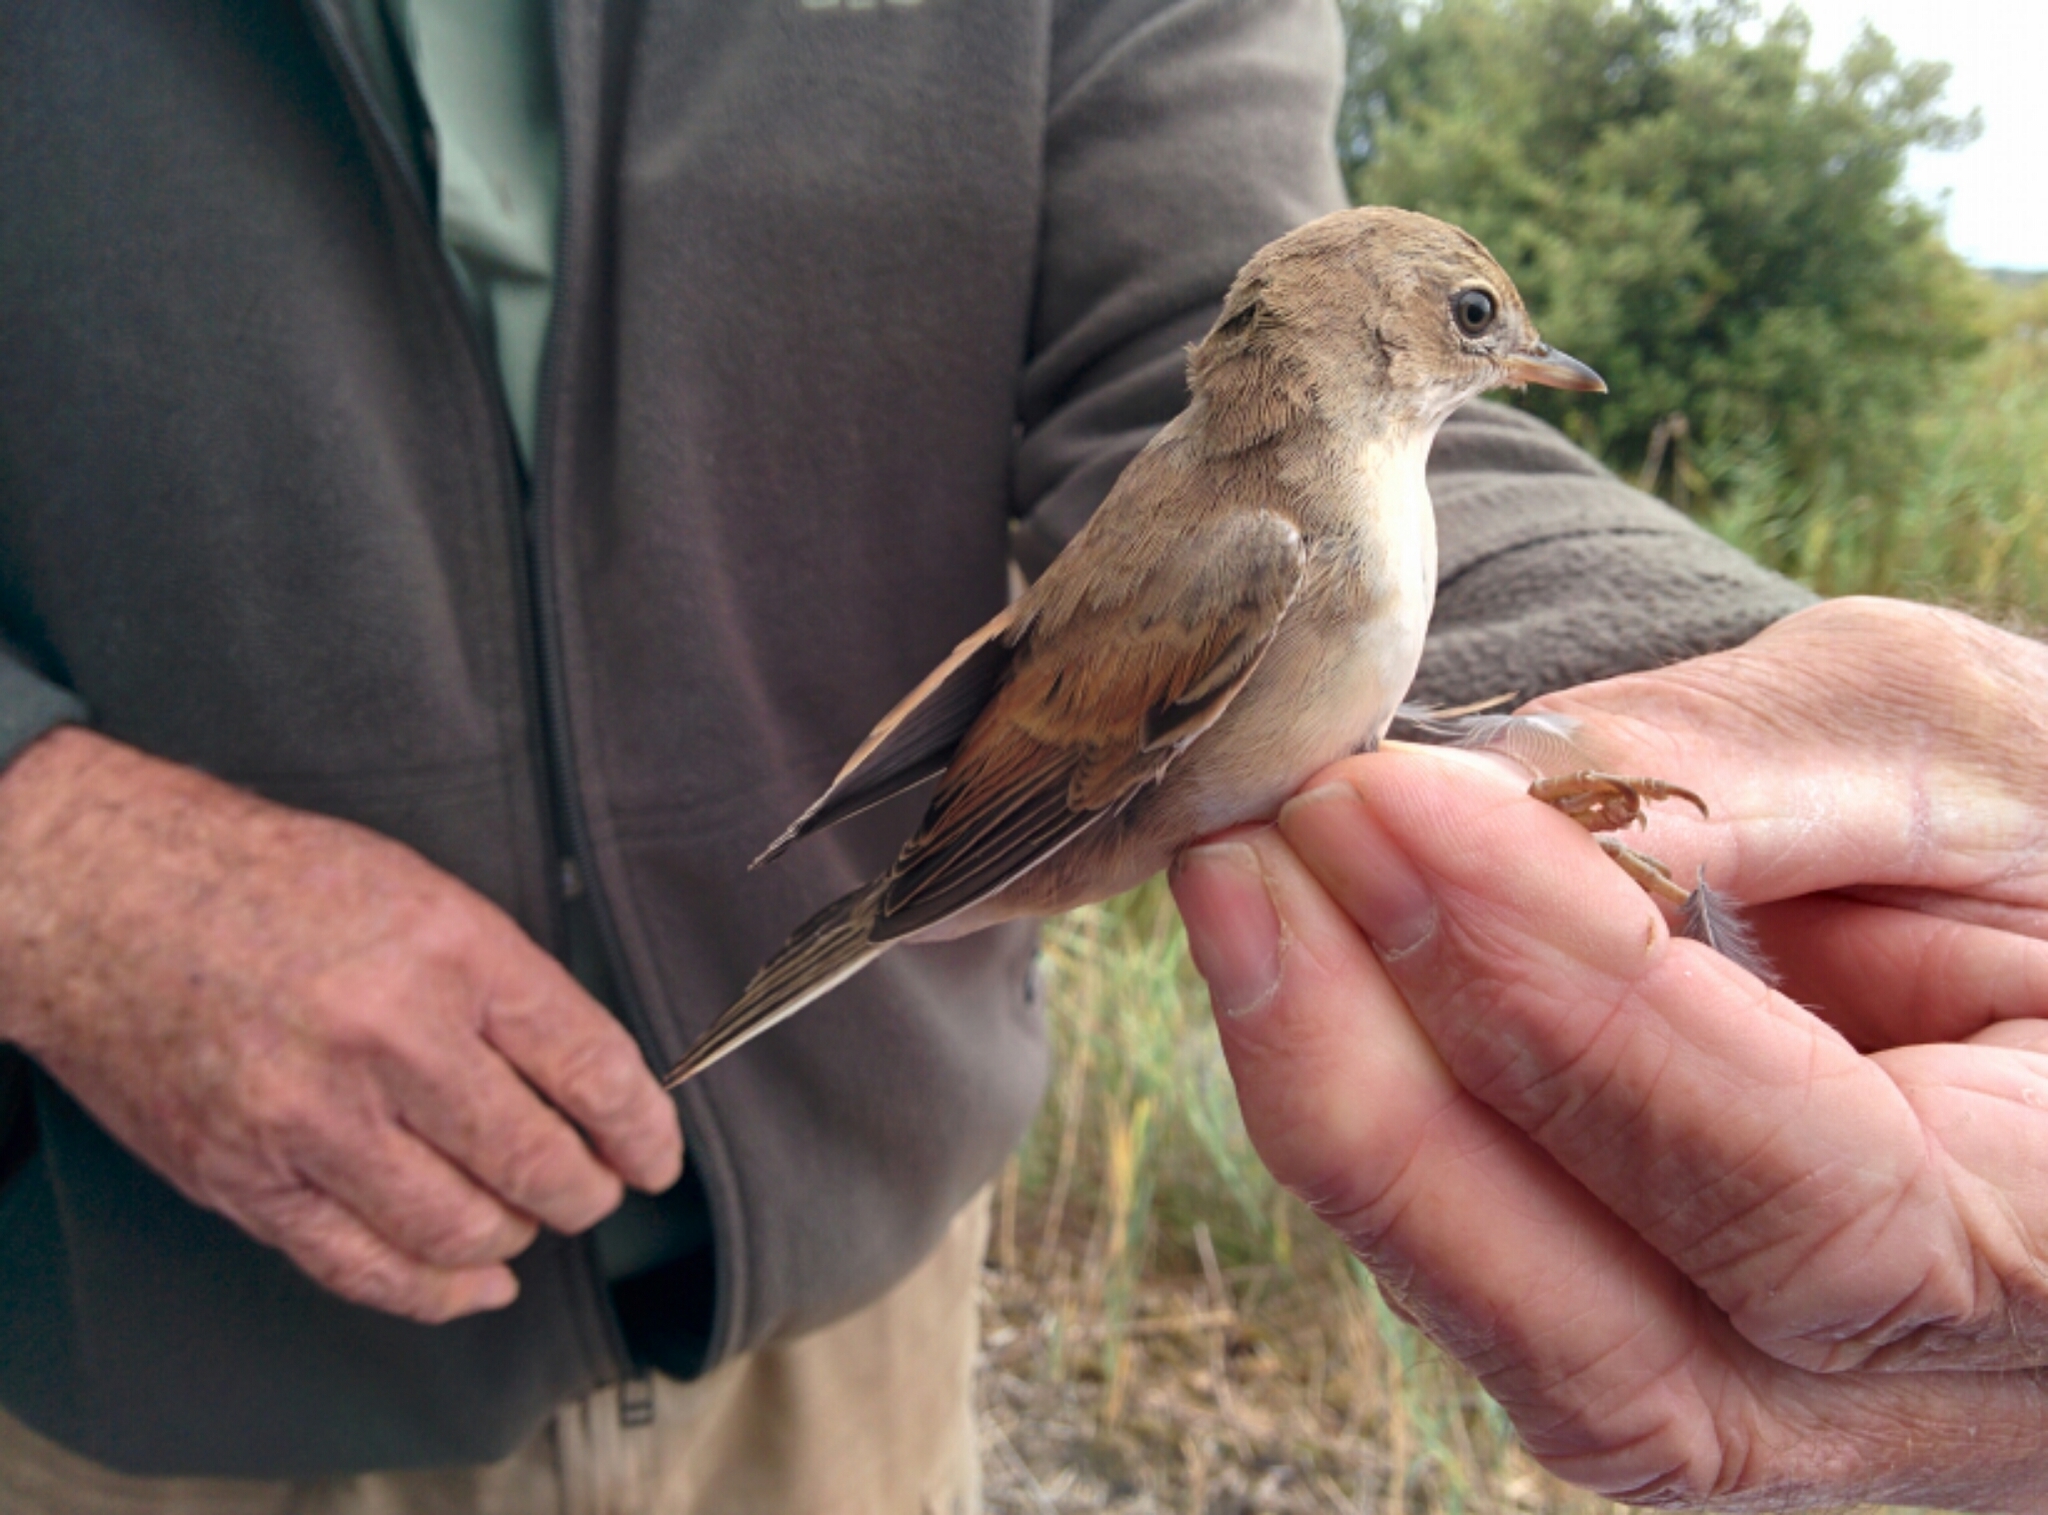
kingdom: Animalia
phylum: Chordata
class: Aves
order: Passeriformes
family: Sylviidae
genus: Sylvia
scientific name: Sylvia communis
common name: Common whitethroat
